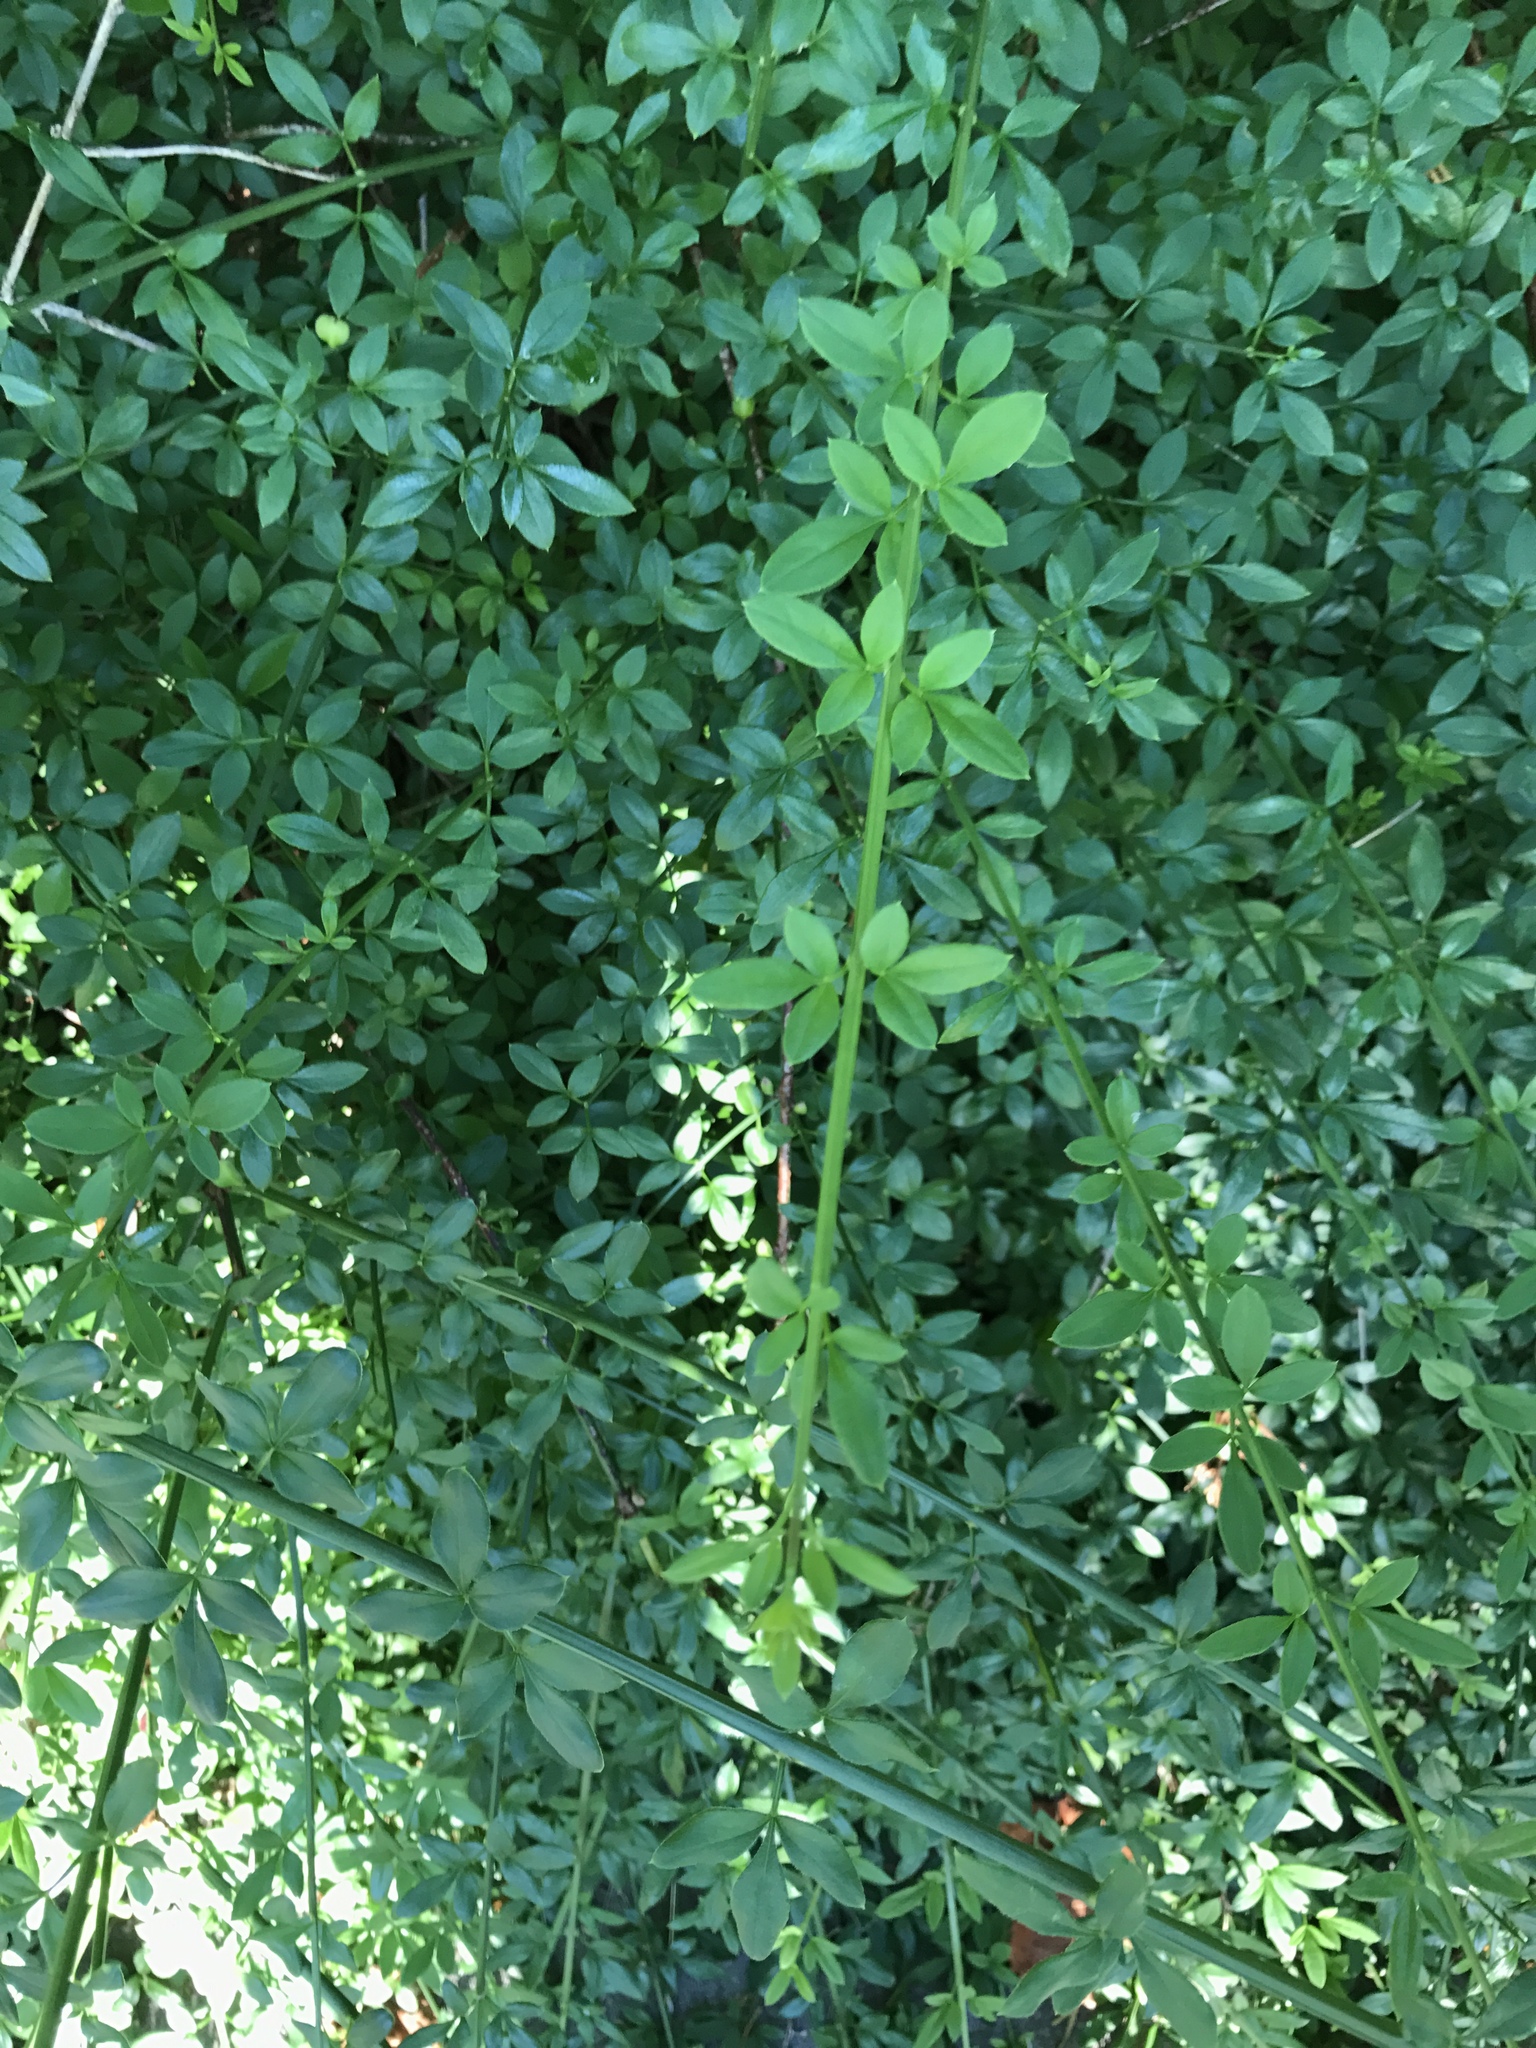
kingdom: Plantae
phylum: Tracheophyta
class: Magnoliopsida
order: Lamiales
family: Oleaceae
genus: Jasminum
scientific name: Jasminum nudiflorum
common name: Winter jasmine
